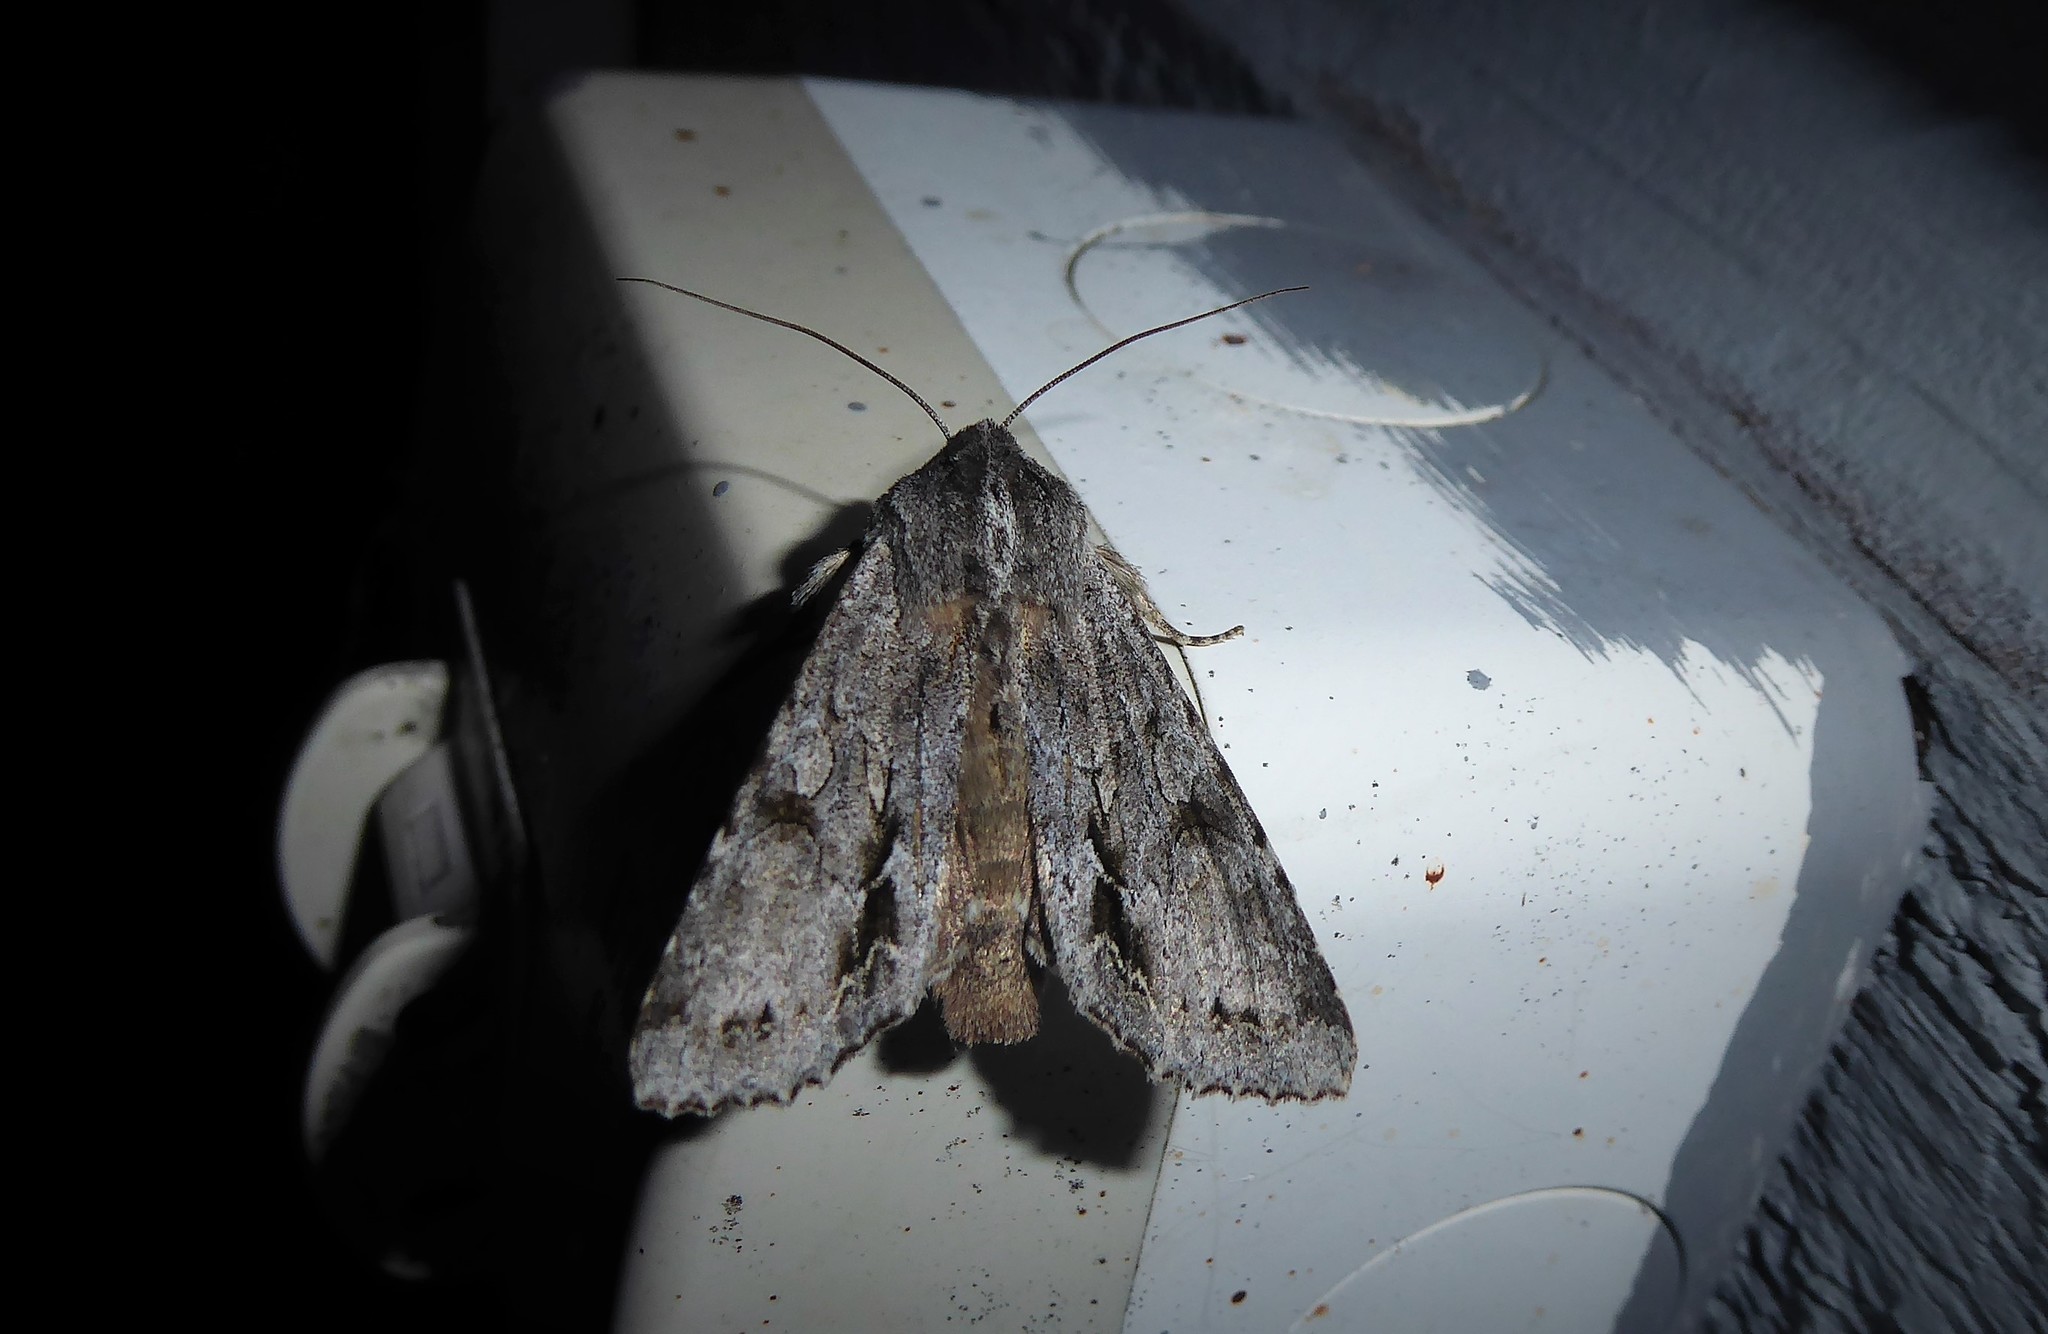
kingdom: Animalia
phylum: Arthropoda
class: Insecta
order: Lepidoptera
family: Noctuidae
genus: Ichneutica
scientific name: Ichneutica
